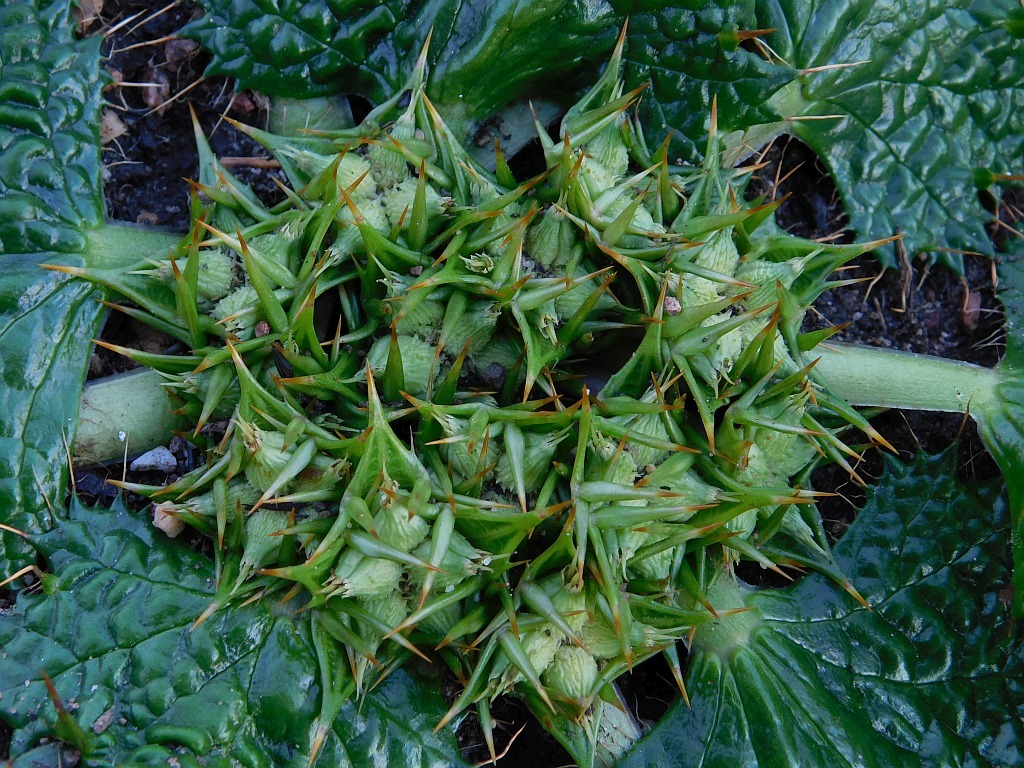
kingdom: Plantae
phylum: Tracheophyta
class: Magnoliopsida
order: Apiales
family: Apiaceae
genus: Arctopus
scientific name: Arctopus echinatus
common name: Platdoring
